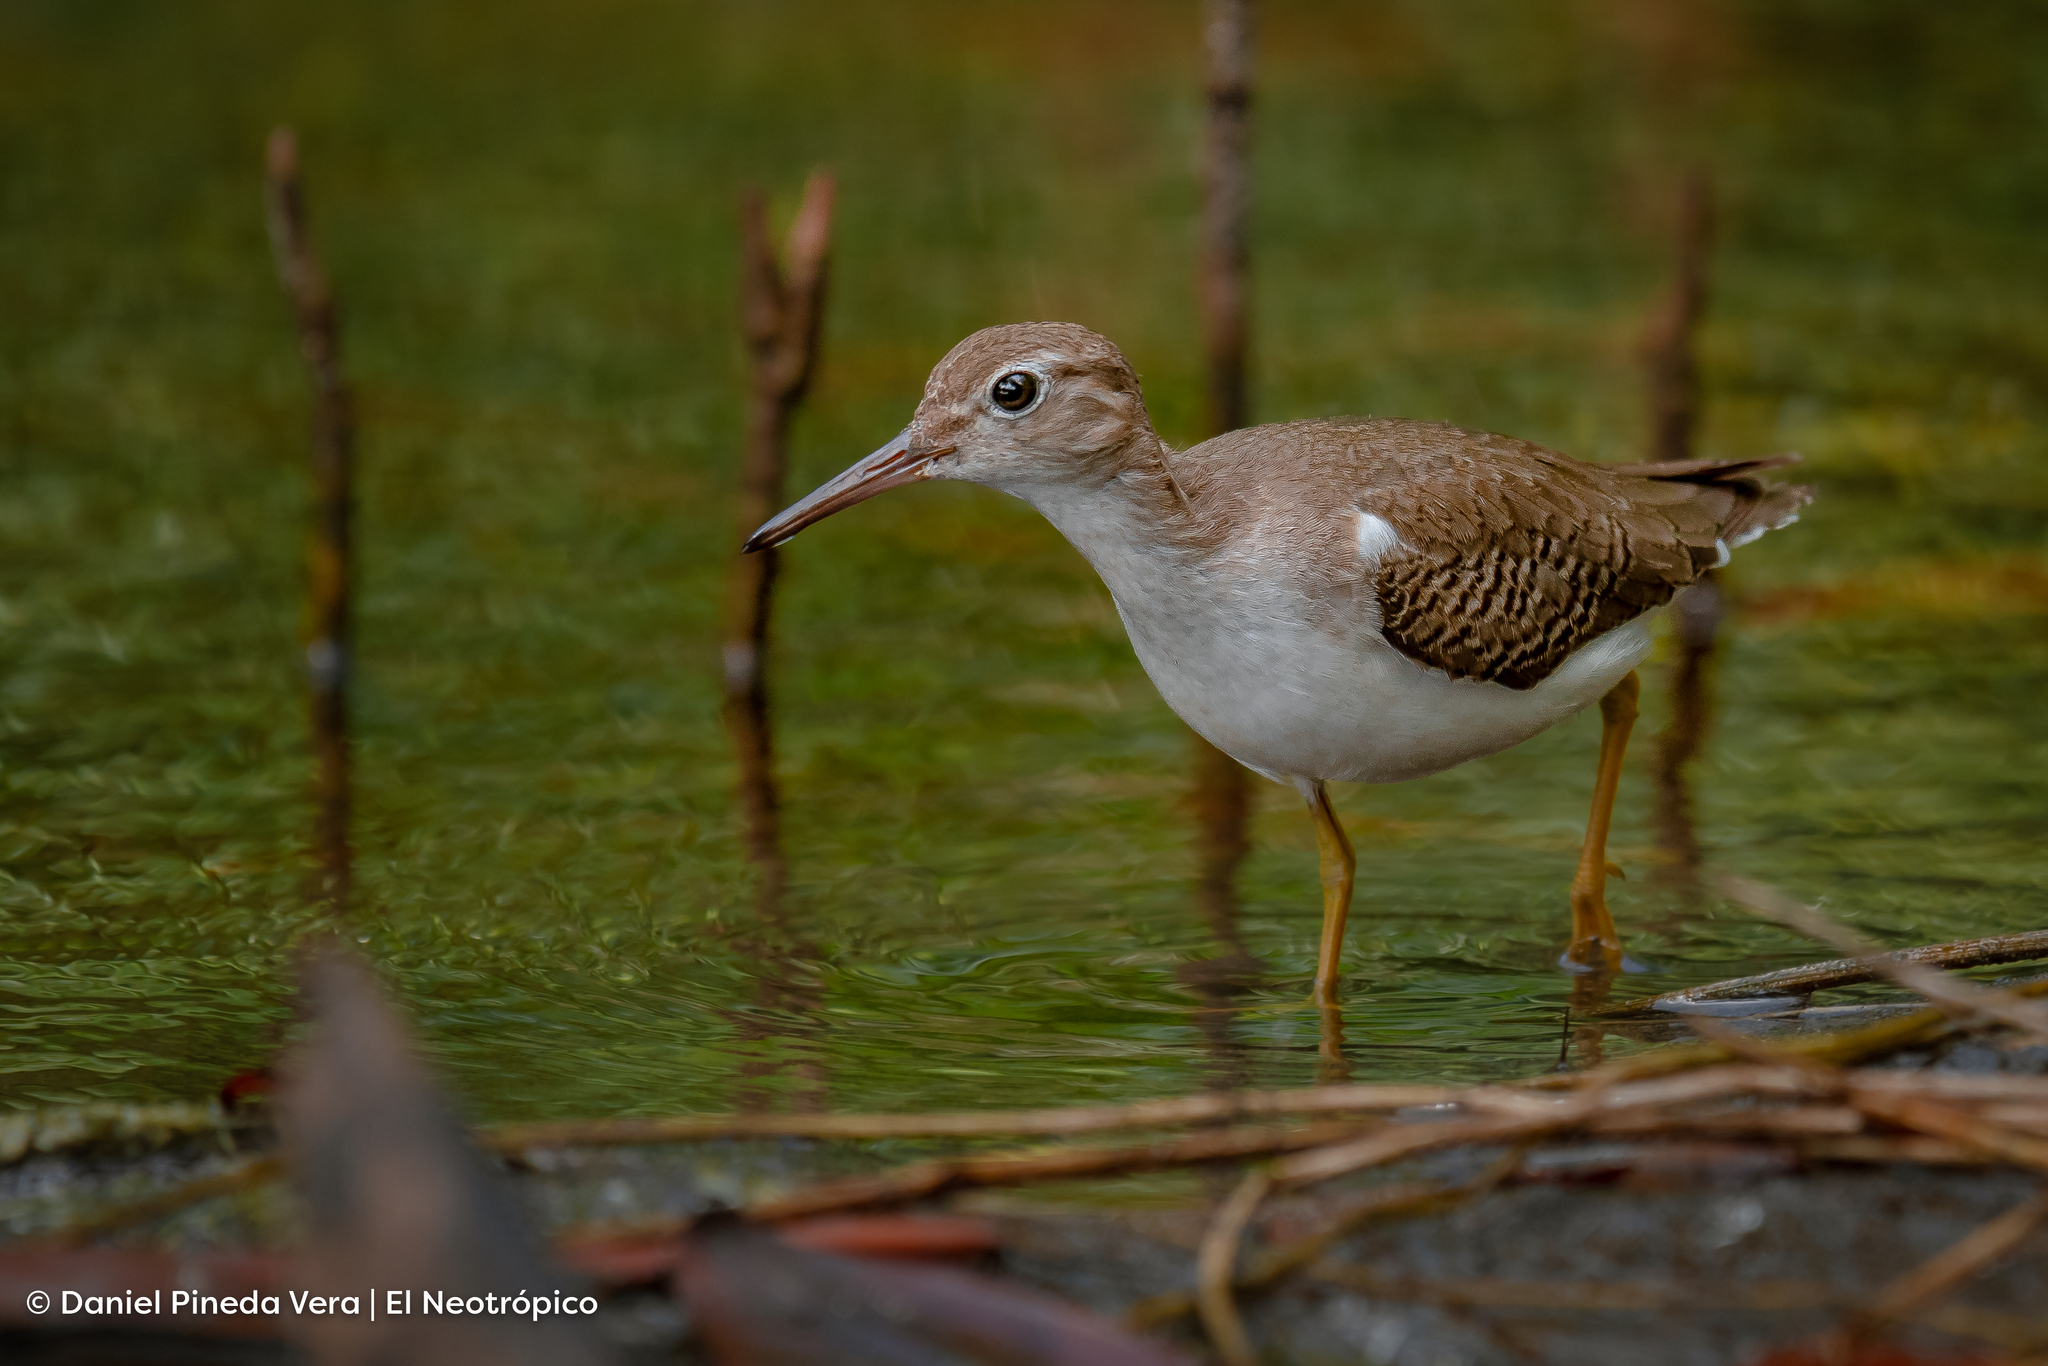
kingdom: Animalia
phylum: Chordata
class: Aves
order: Charadriiformes
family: Scolopacidae
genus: Actitis
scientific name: Actitis macularius
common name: Spotted sandpiper
